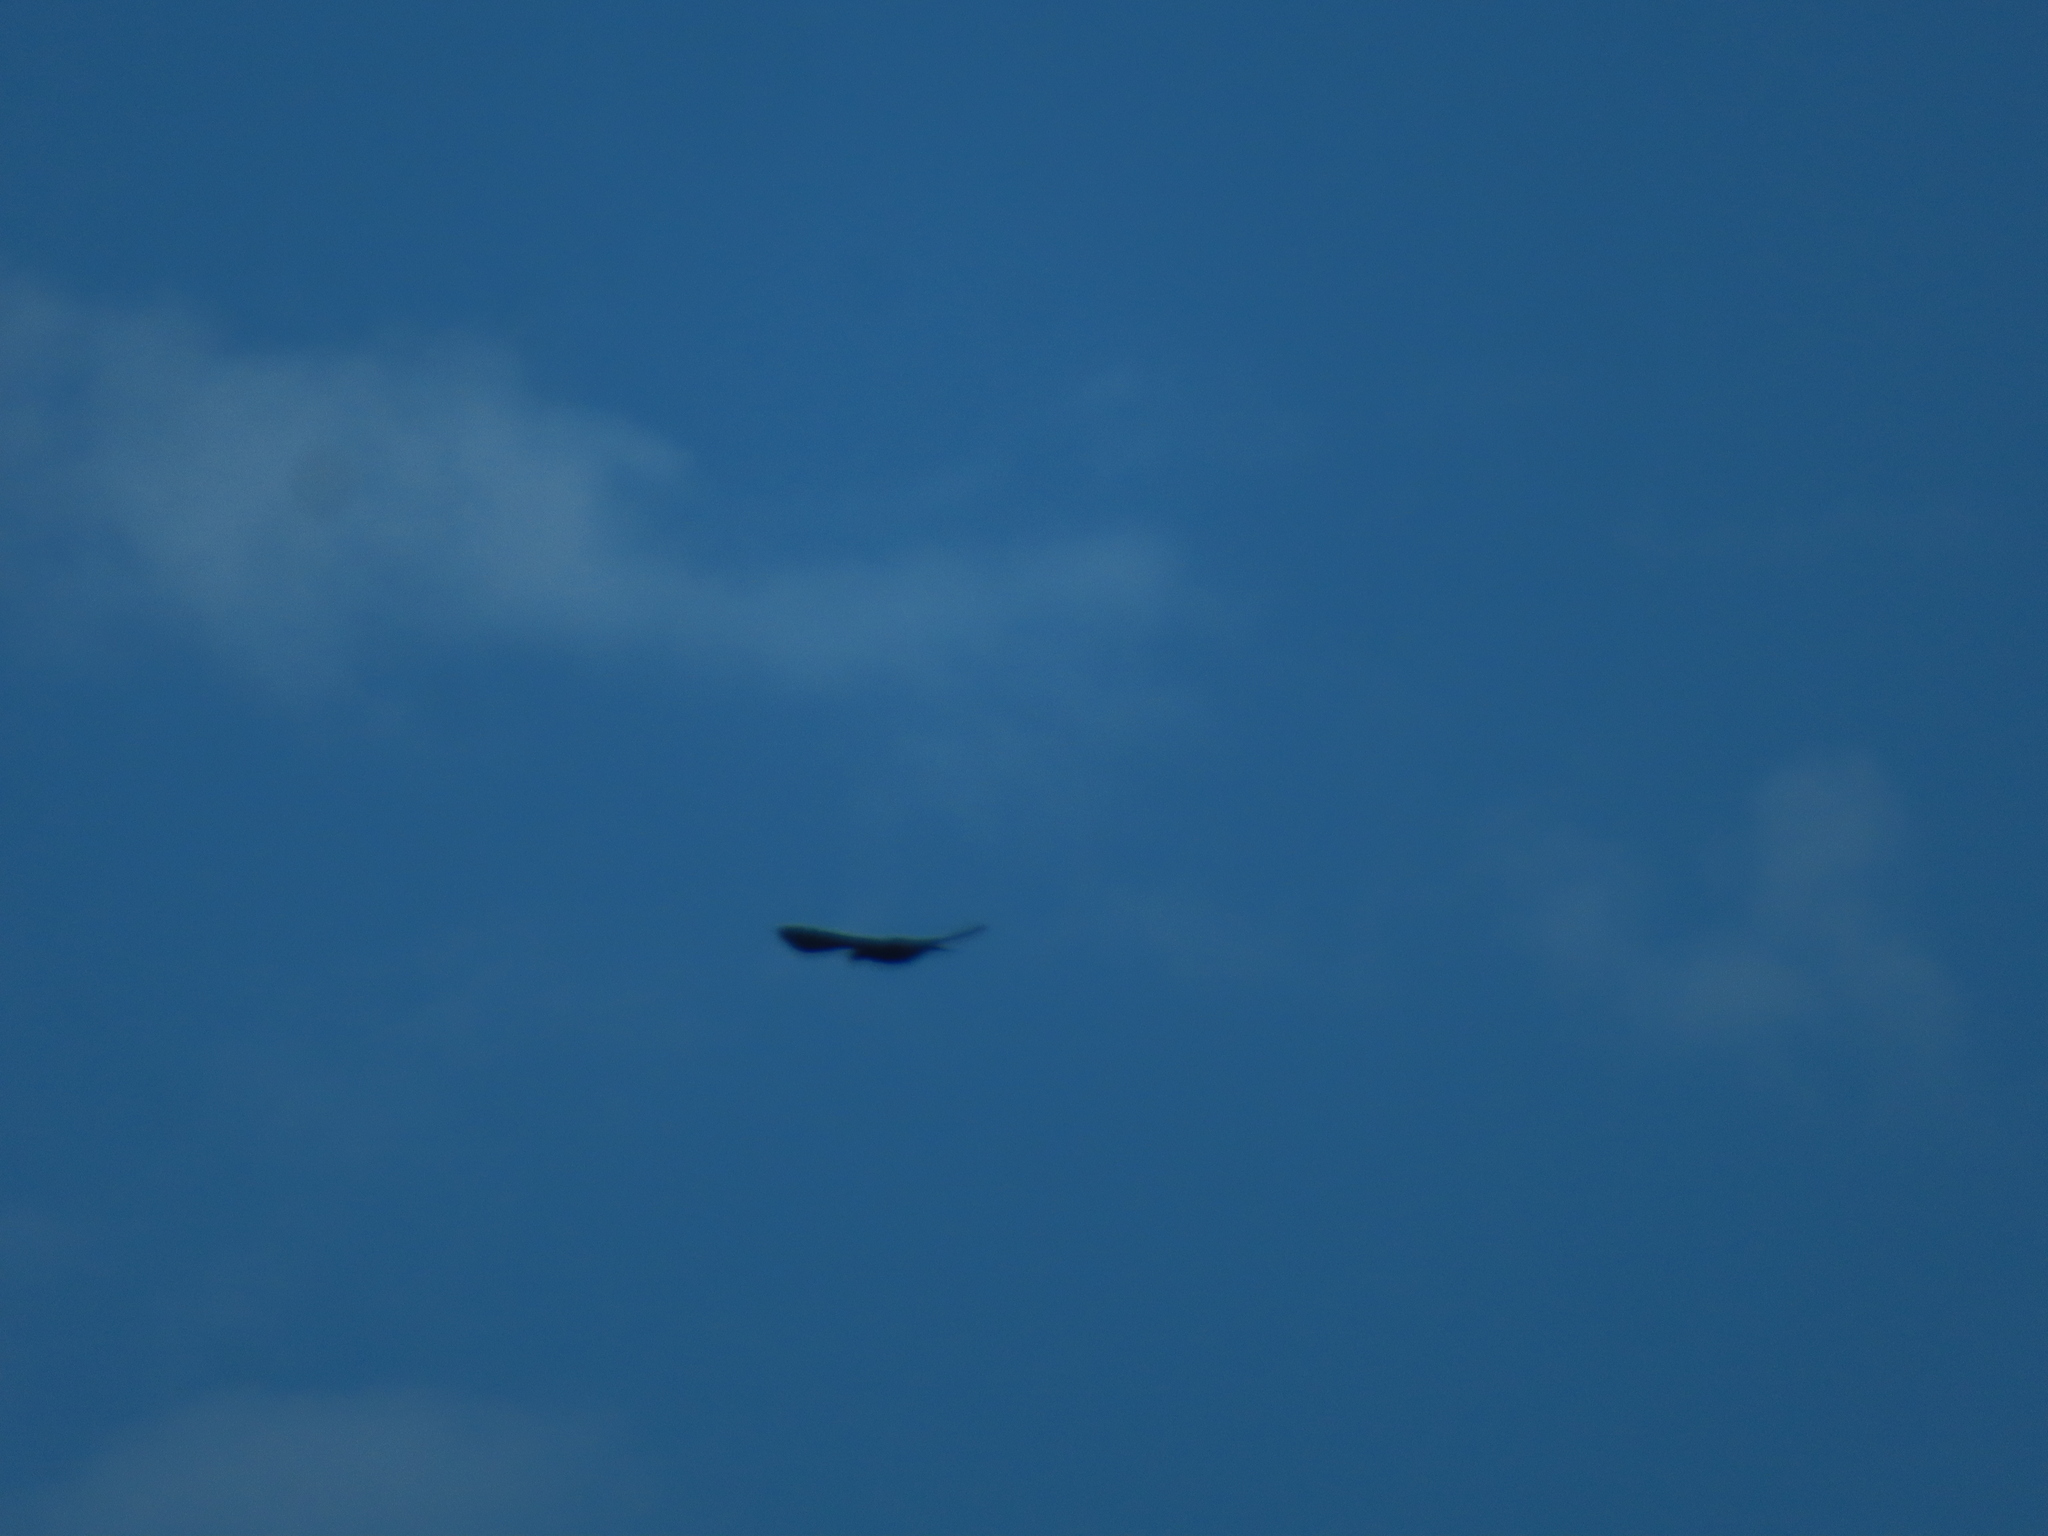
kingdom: Animalia
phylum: Chordata
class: Aves
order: Passeriformes
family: Corvidae
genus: Corvus
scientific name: Corvus brachyrhynchos
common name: American crow
